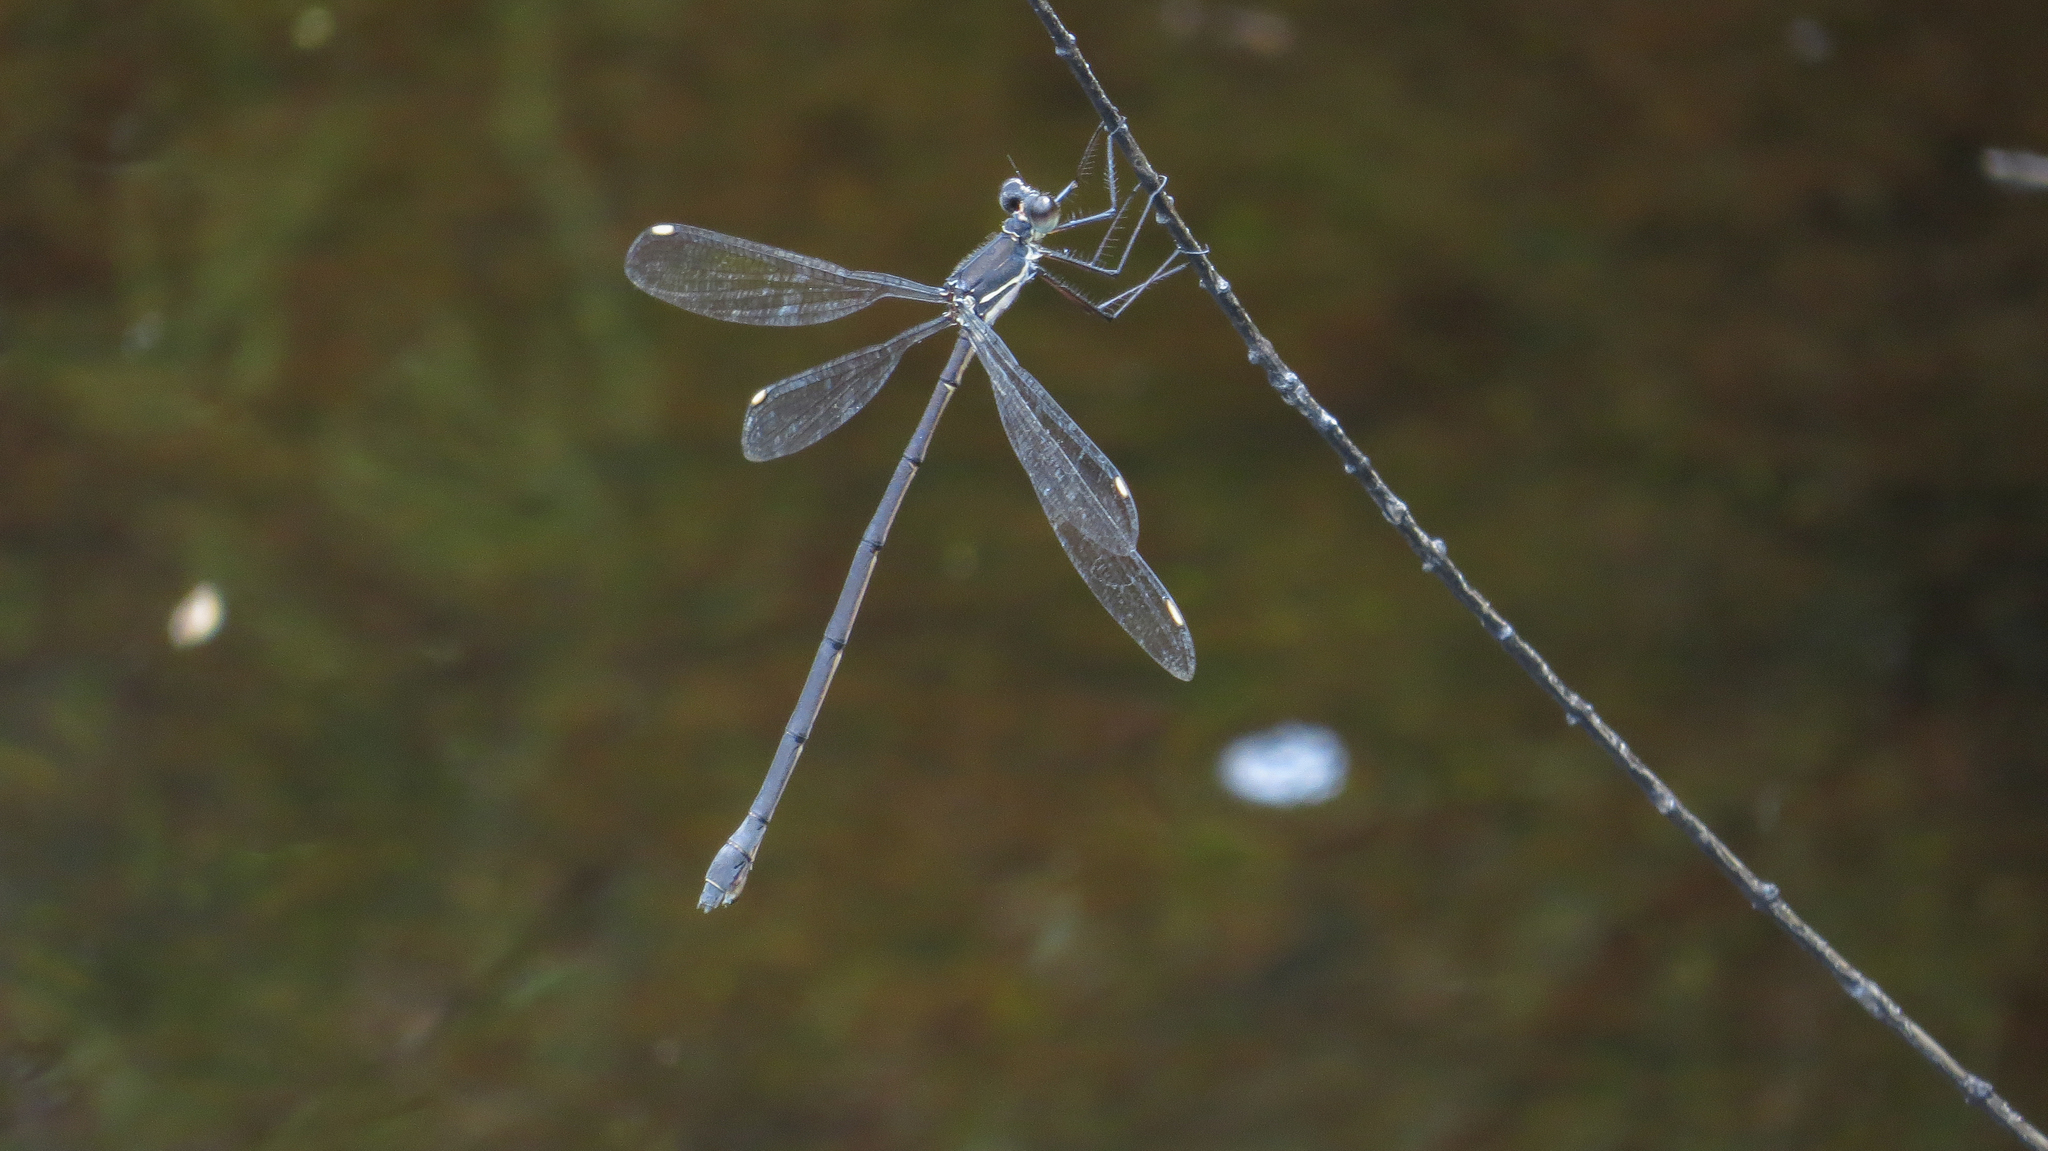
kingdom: Animalia
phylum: Arthropoda
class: Insecta
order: Odonata
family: Synlestidae
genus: Synlestes
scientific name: Synlestes weyersii
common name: Bronze needle
